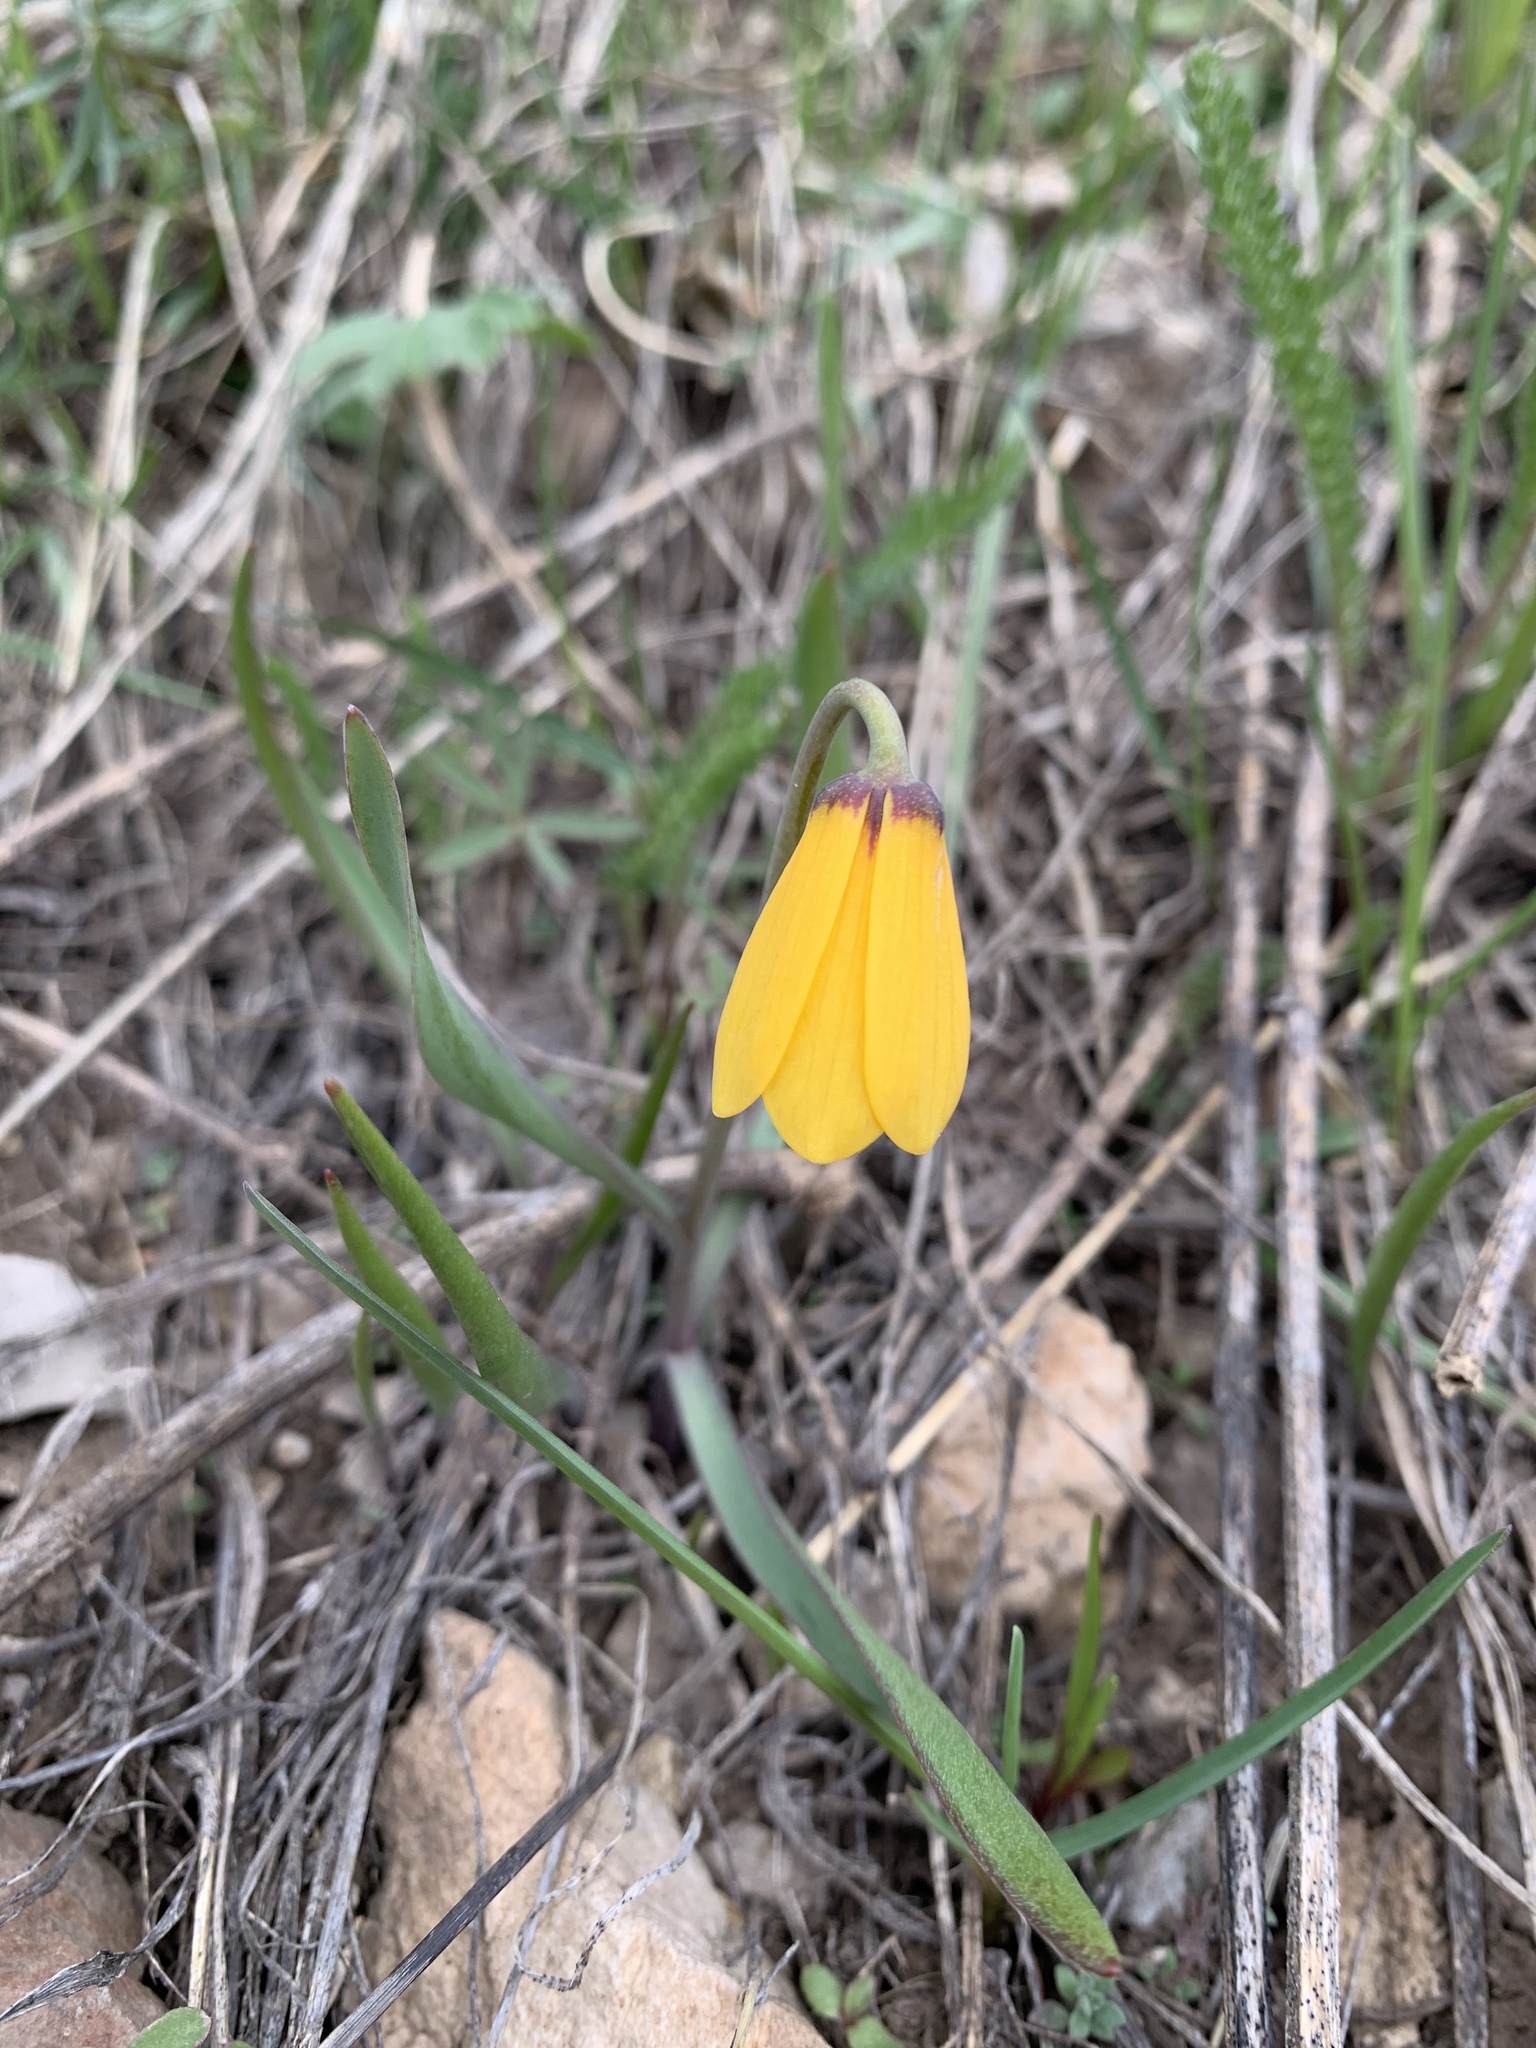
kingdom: Plantae
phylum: Tracheophyta
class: Liliopsida
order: Liliales
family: Liliaceae
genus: Fritillaria
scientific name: Fritillaria pudica
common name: Yellow fritillary
